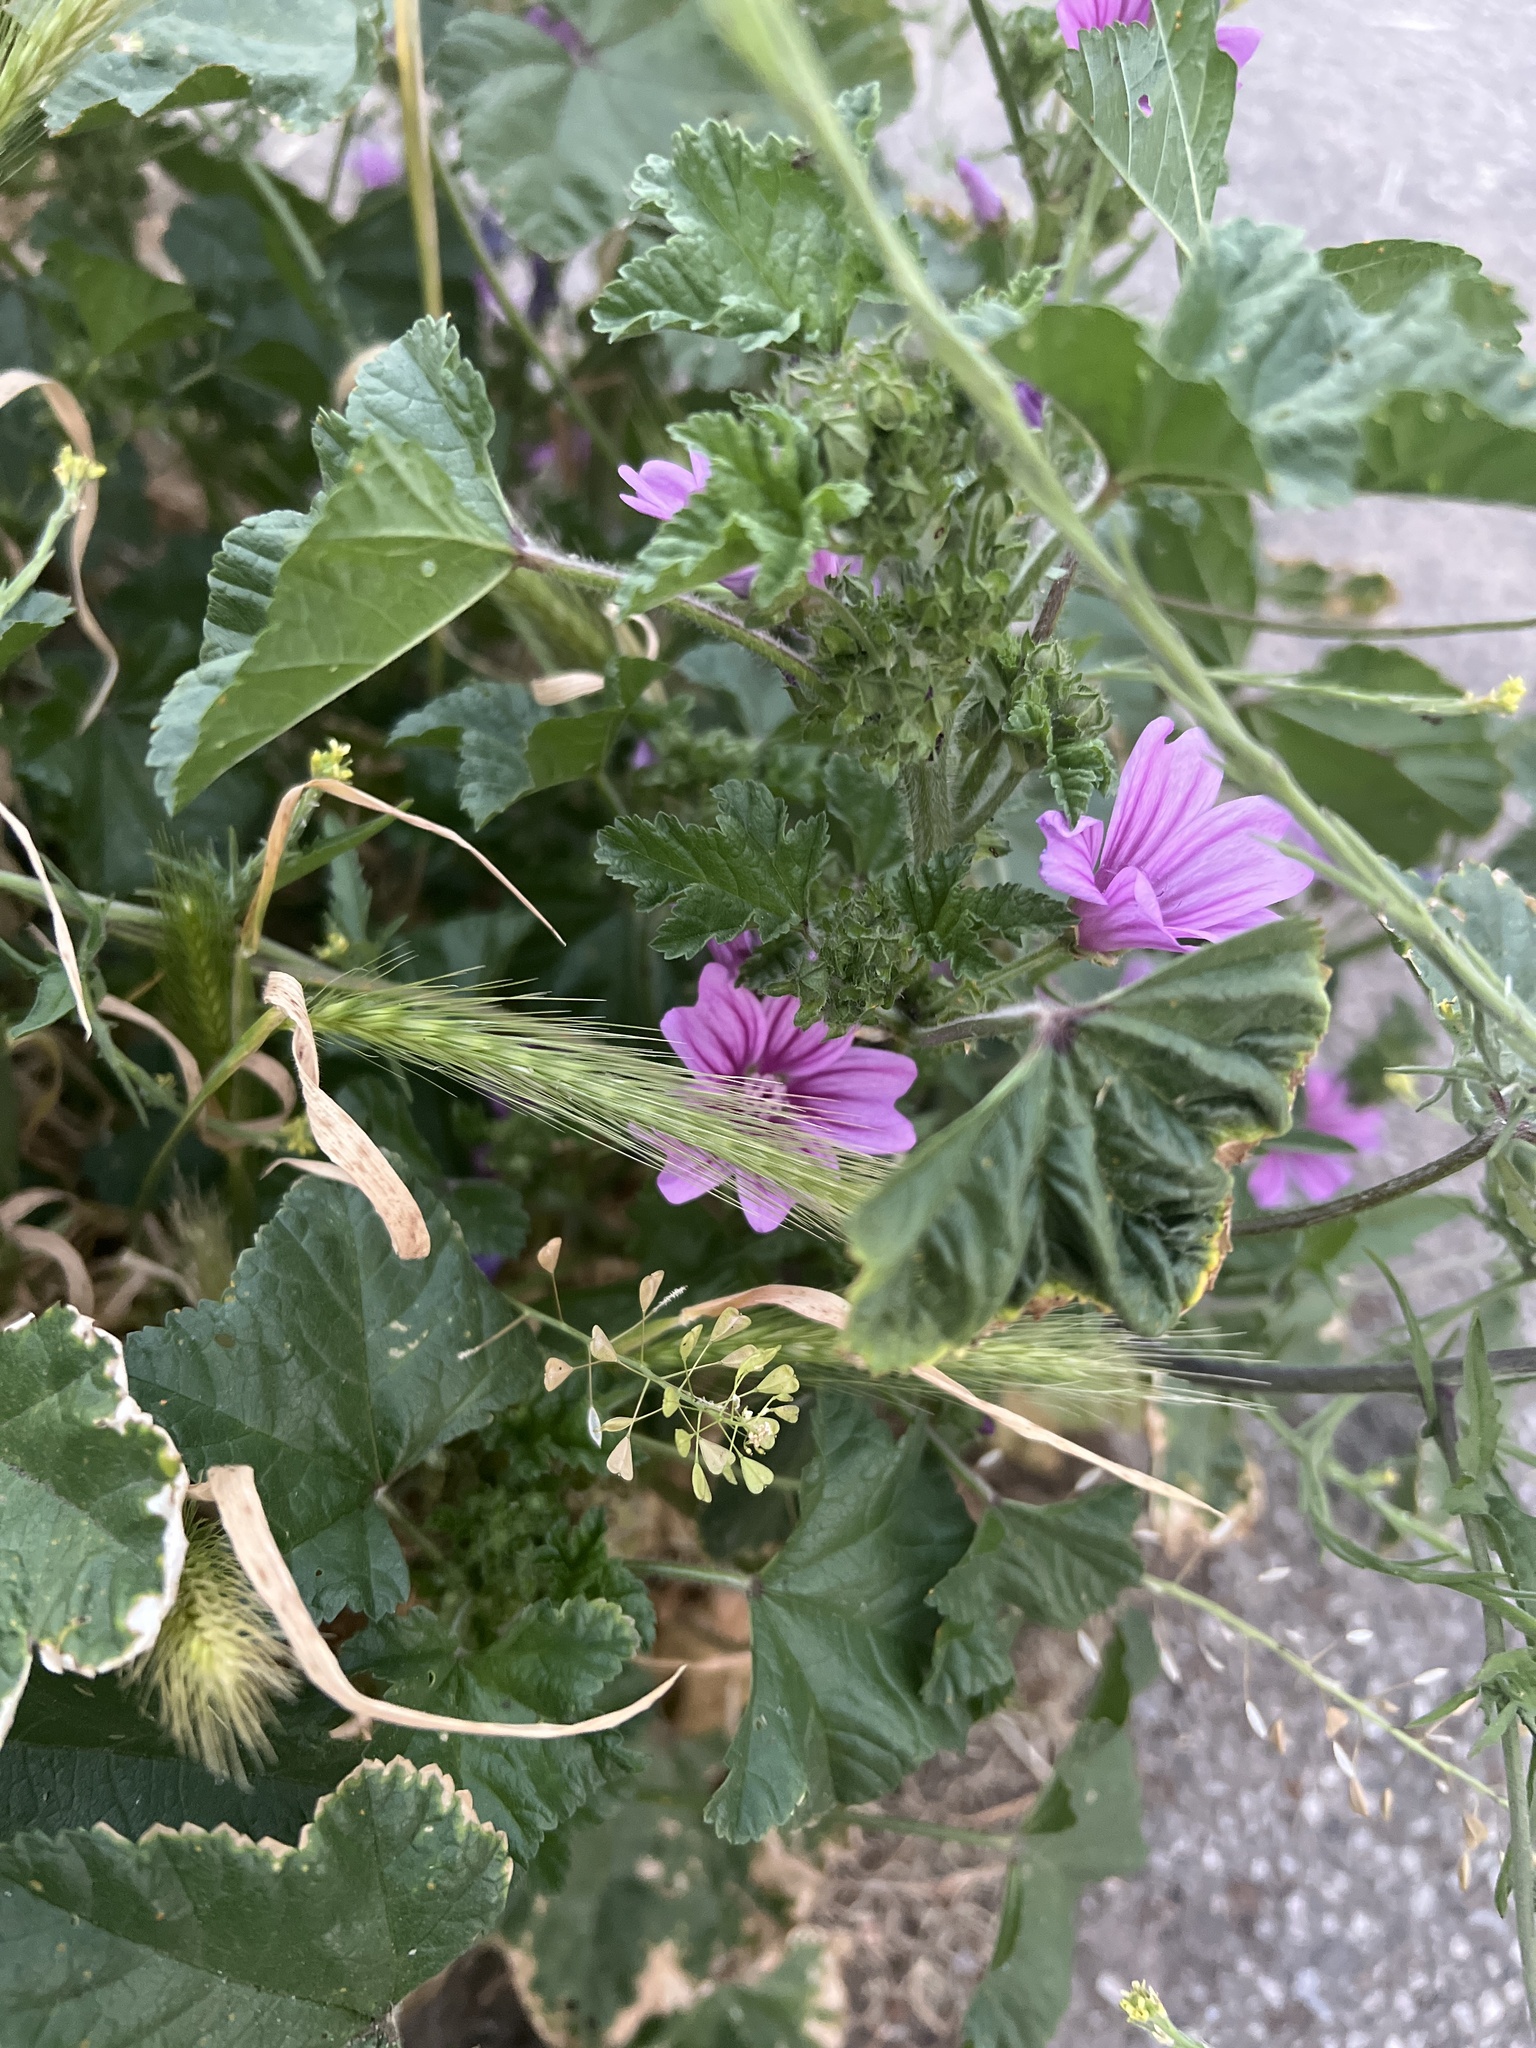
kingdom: Plantae
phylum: Tracheophyta
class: Magnoliopsida
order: Malvales
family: Malvaceae
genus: Malva
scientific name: Malva sylvestris
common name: Common mallow
